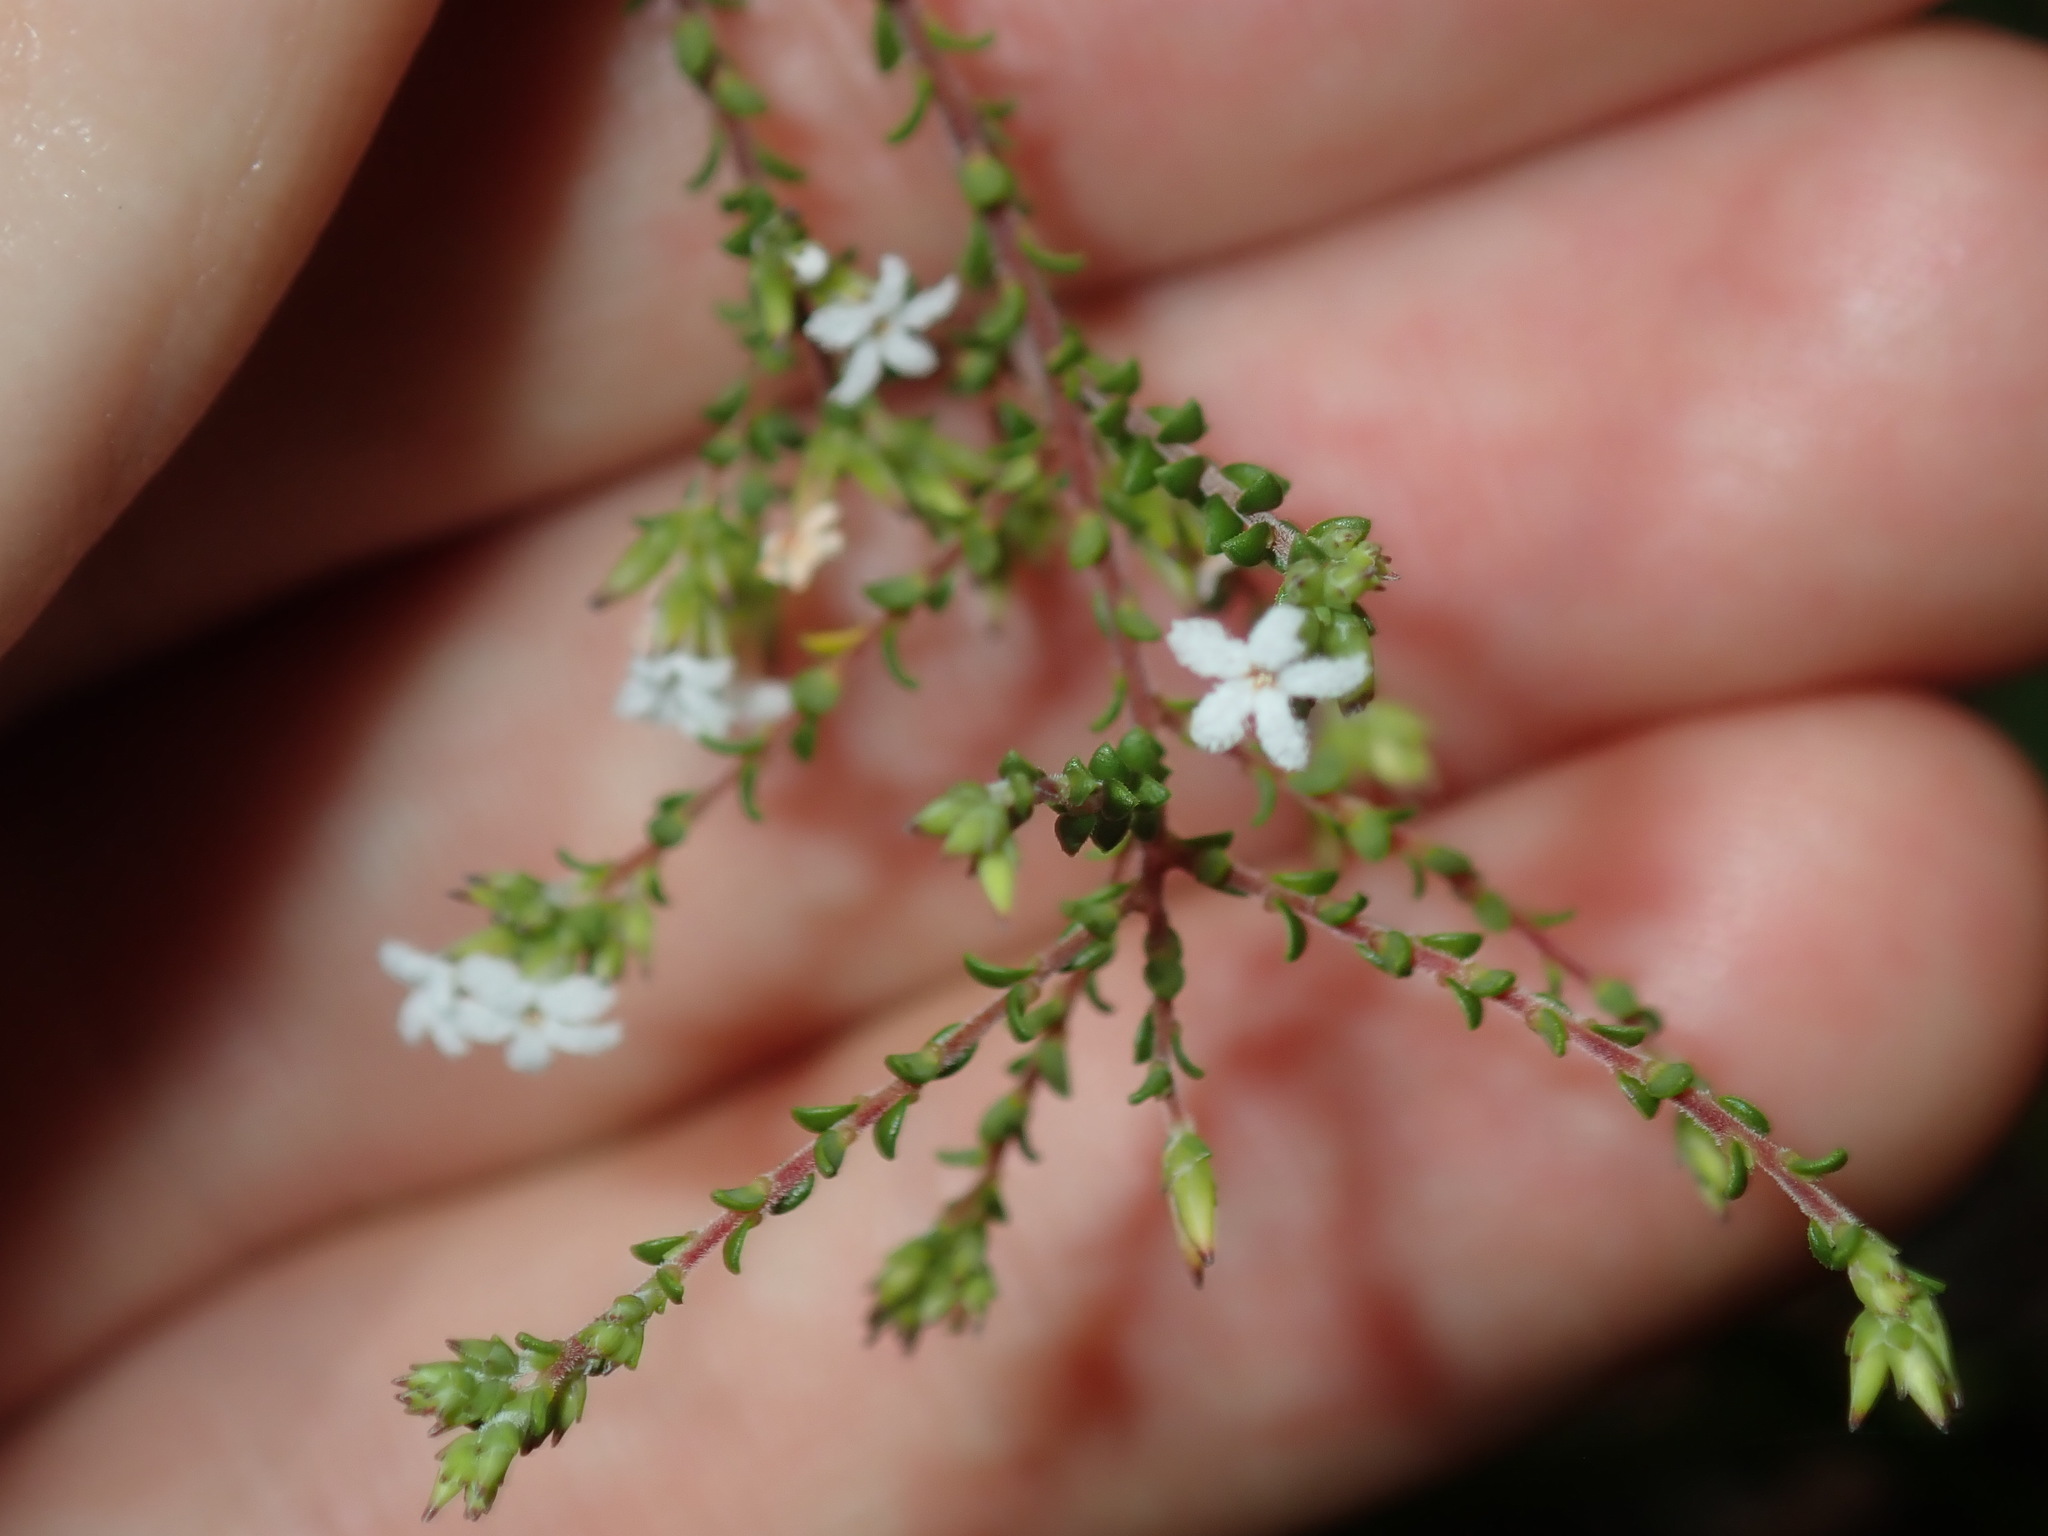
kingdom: Plantae
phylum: Tracheophyta
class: Magnoliopsida
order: Ericales
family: Ericaceae
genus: Leucopogon
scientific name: Leucopogon microphyllus
